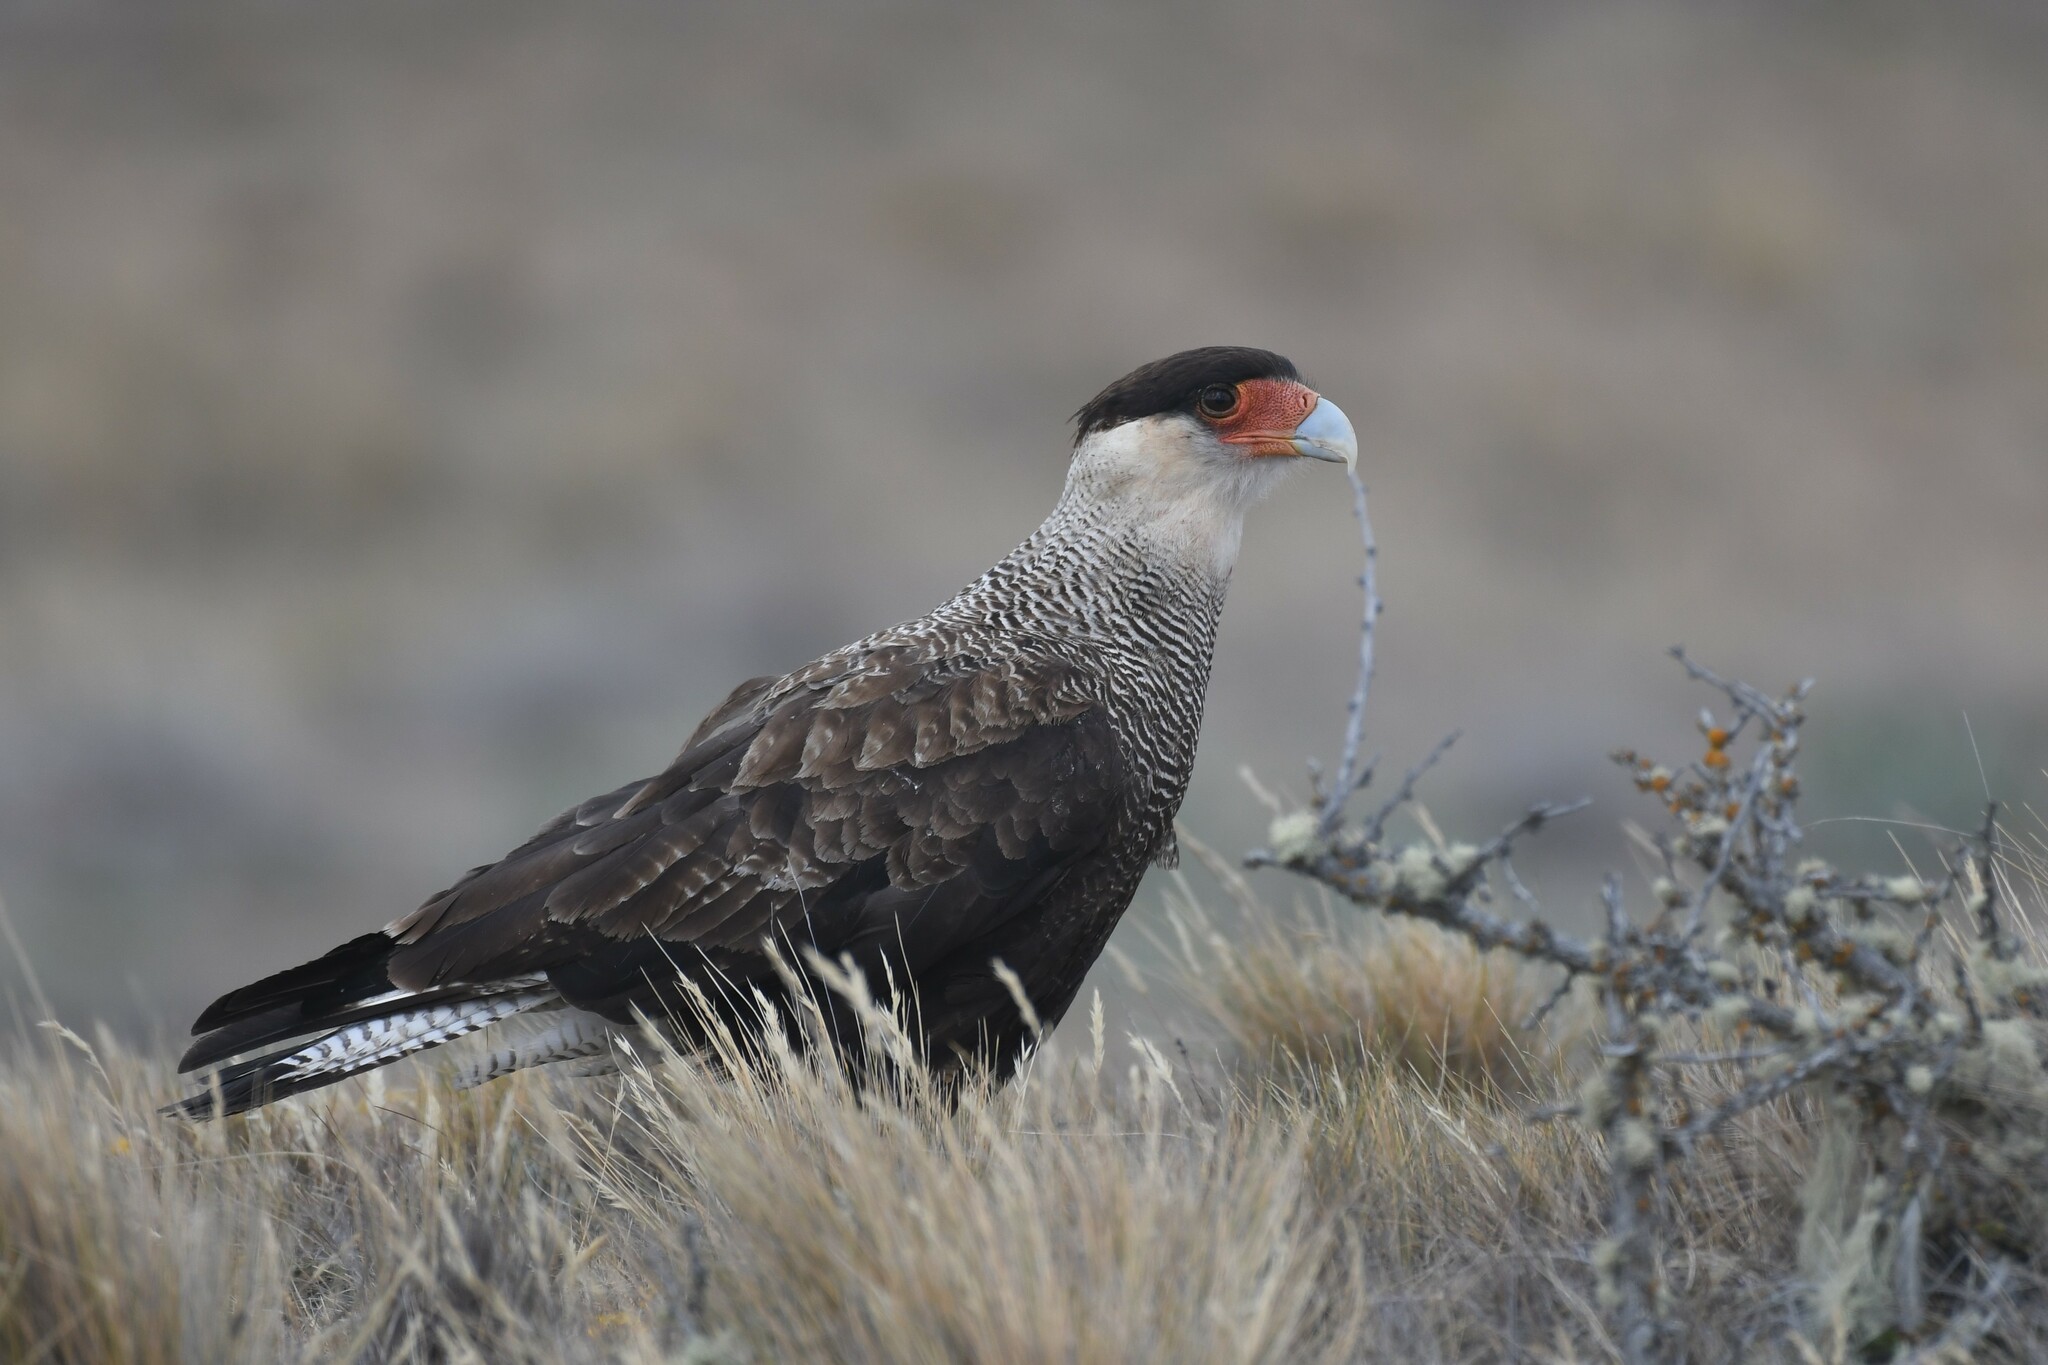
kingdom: Animalia
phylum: Chordata
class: Aves
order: Falconiformes
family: Falconidae
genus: Caracara
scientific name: Caracara plancus
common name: Southern caracara
